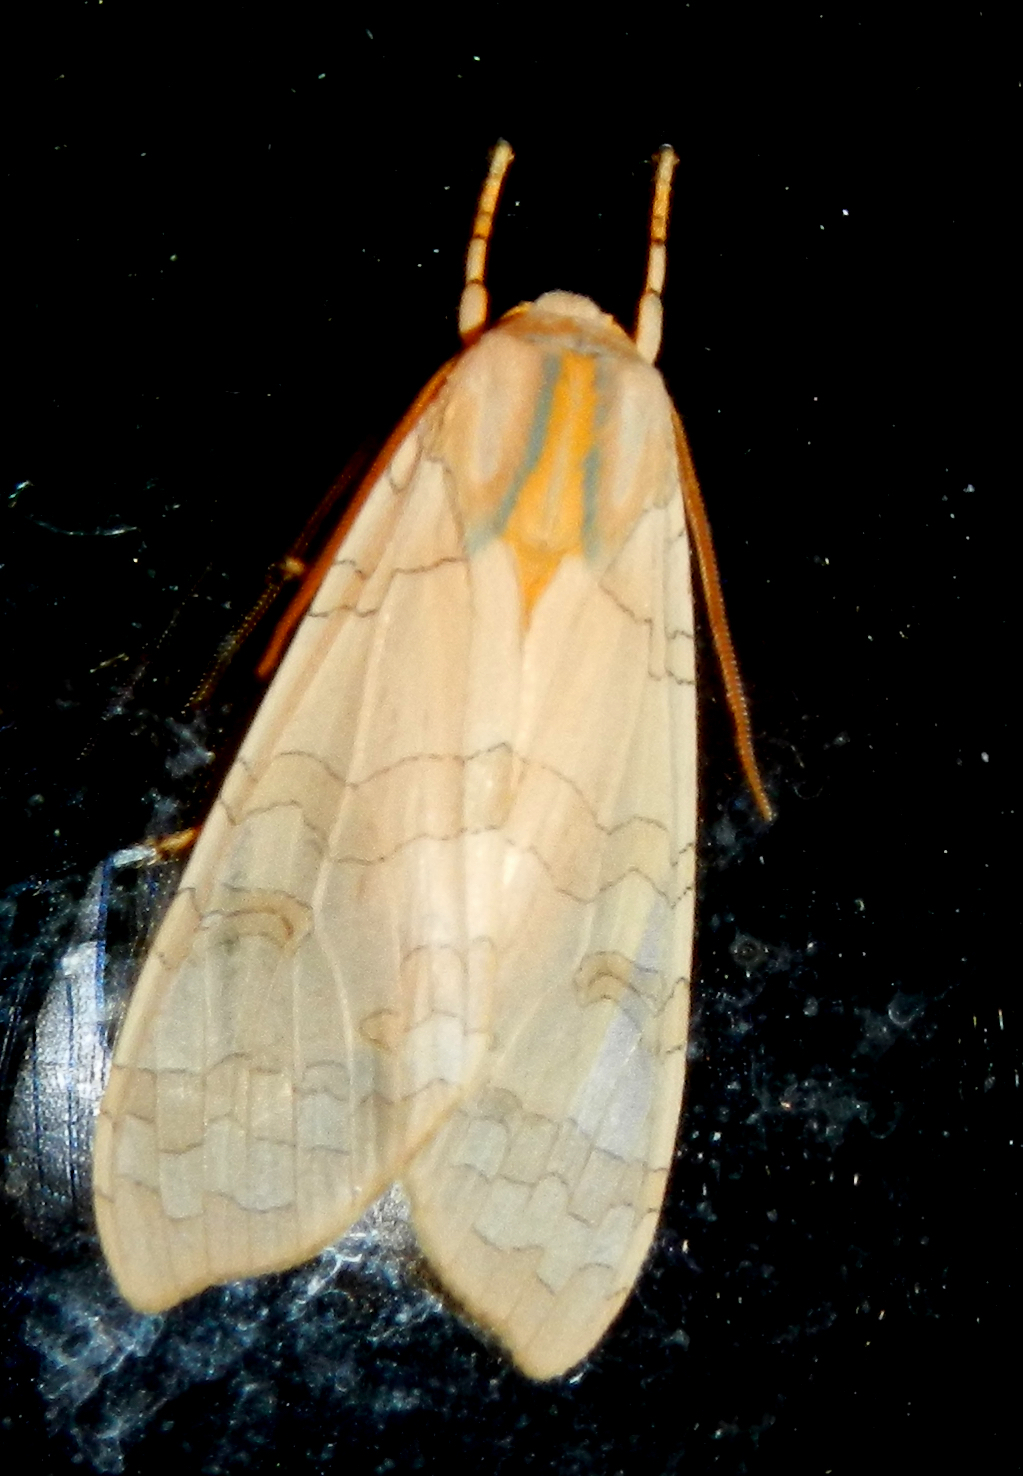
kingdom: Animalia
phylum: Arthropoda
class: Insecta
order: Lepidoptera
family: Erebidae
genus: Halysidota
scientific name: Halysidota tessellaris
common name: Banded tussock moth
